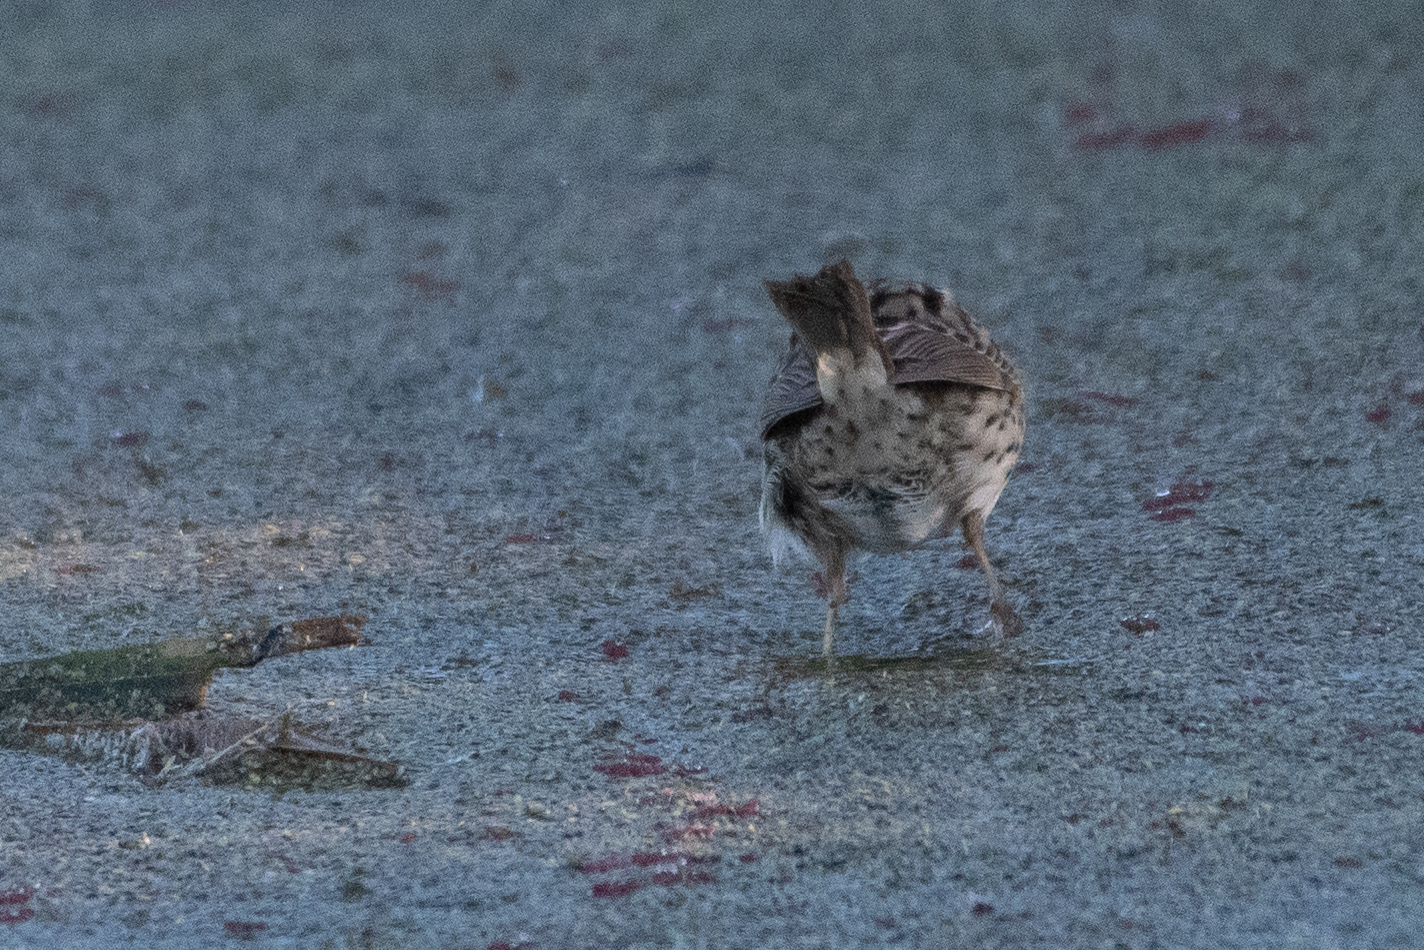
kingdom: Animalia
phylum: Chordata
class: Aves
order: Passeriformes
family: Passerellidae
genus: Melospiza
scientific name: Melospiza lincolnii
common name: Lincoln's sparrow
